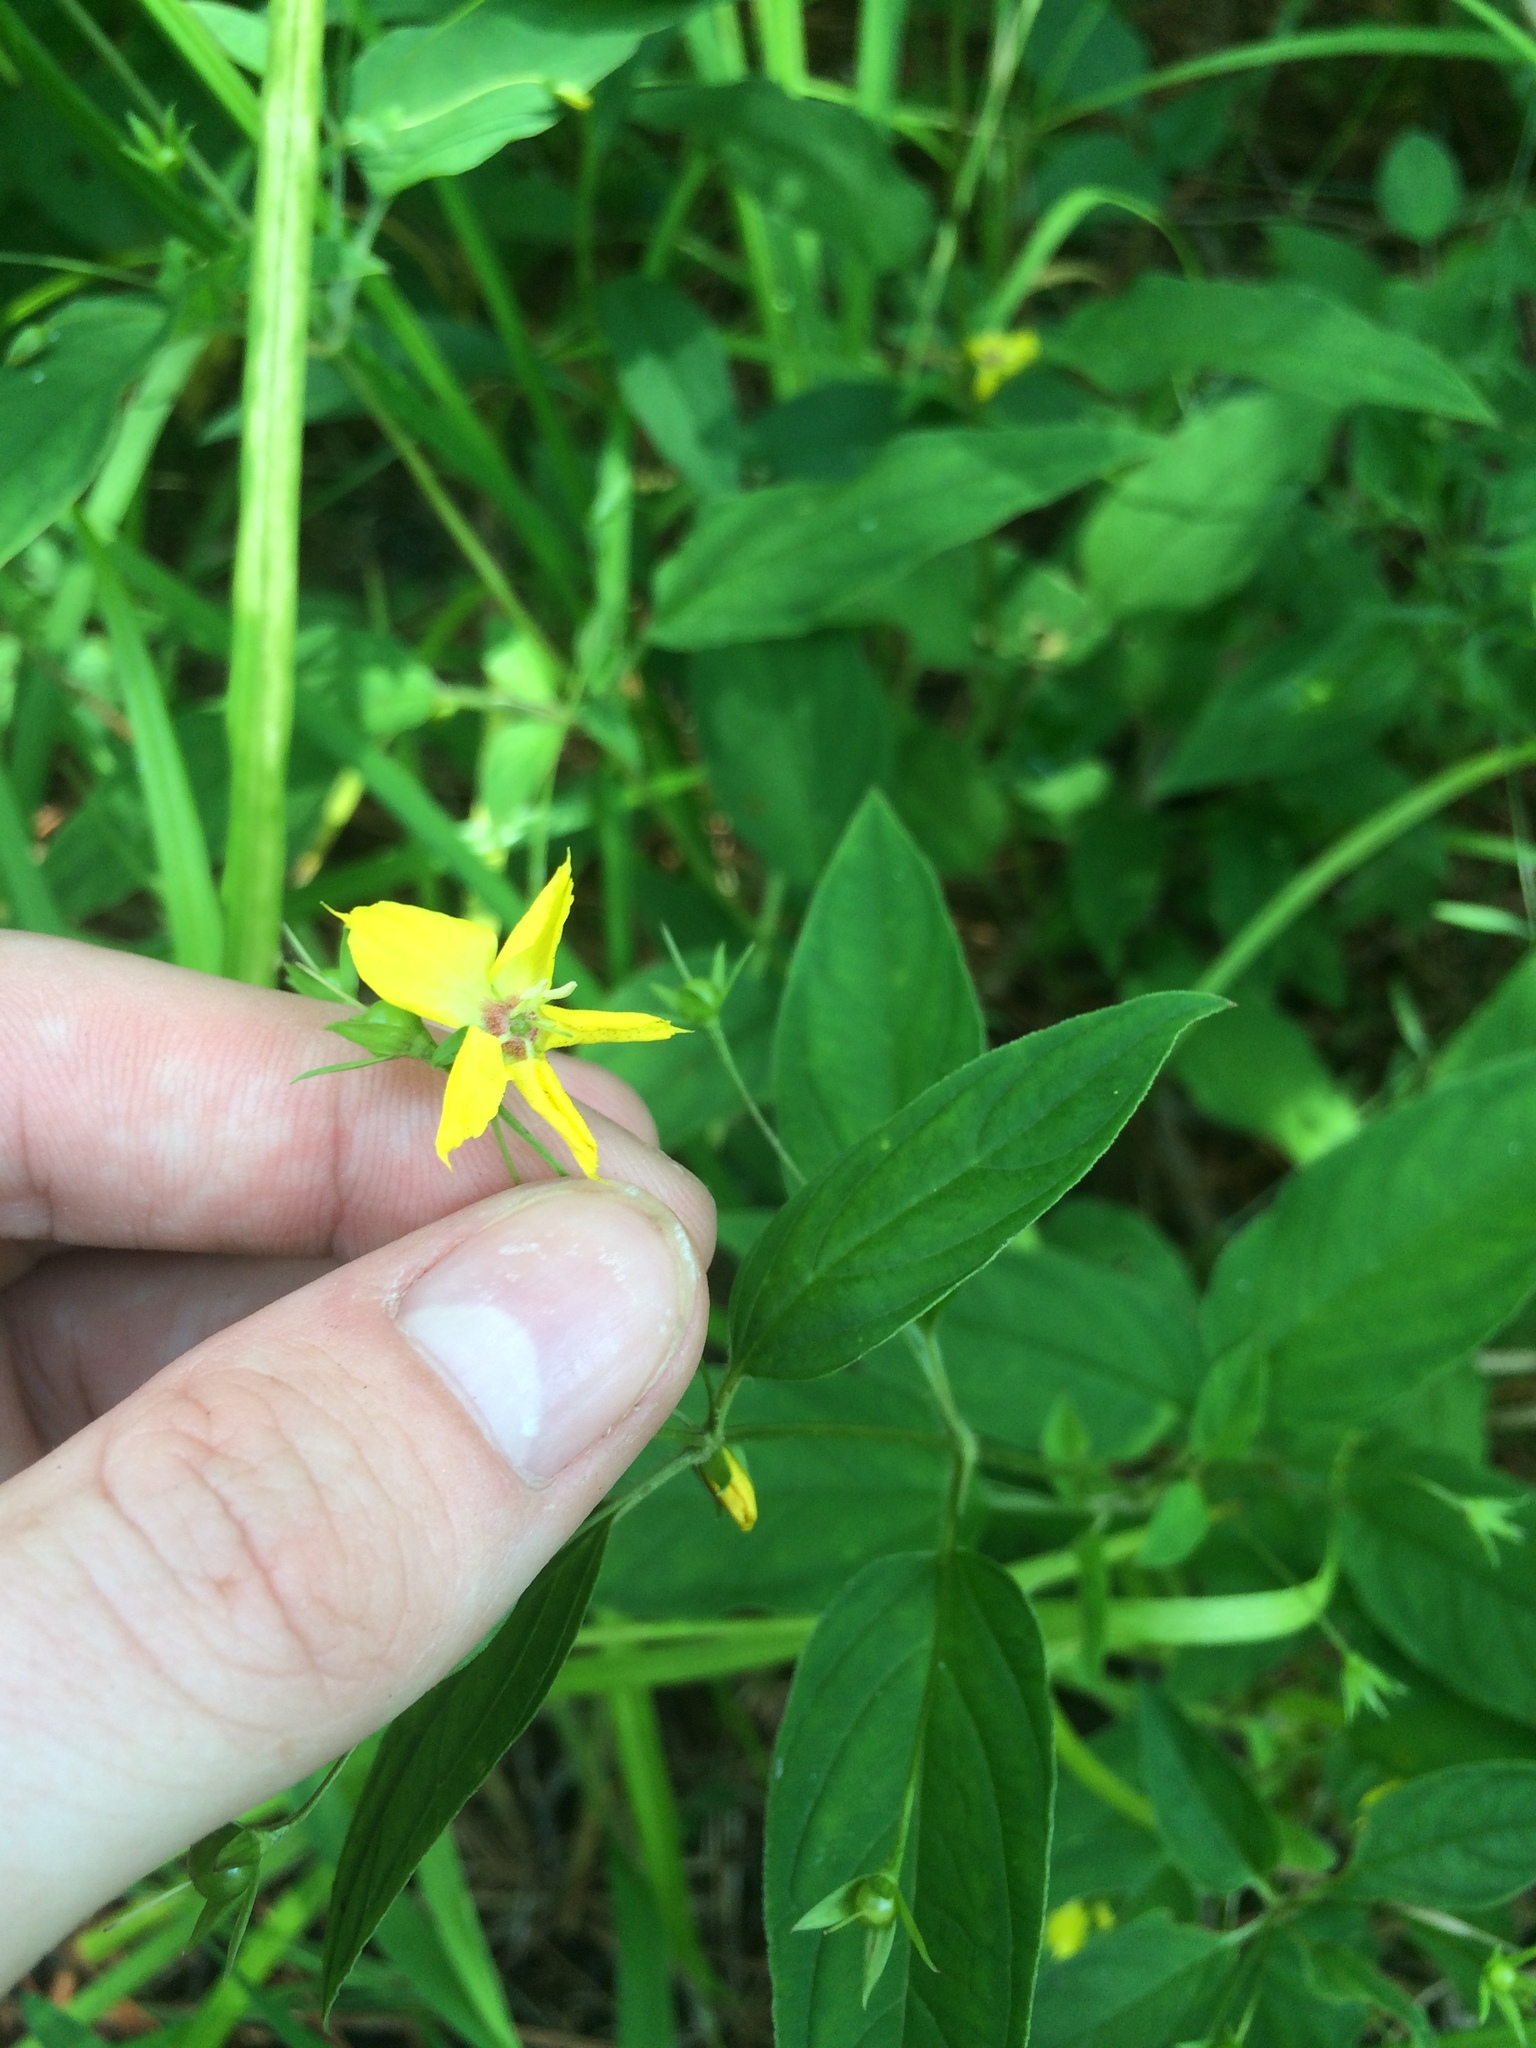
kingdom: Plantae
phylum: Tracheophyta
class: Magnoliopsida
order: Ericales
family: Primulaceae
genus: Lysimachia
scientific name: Lysimachia ciliata
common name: Fringed loosestrife
